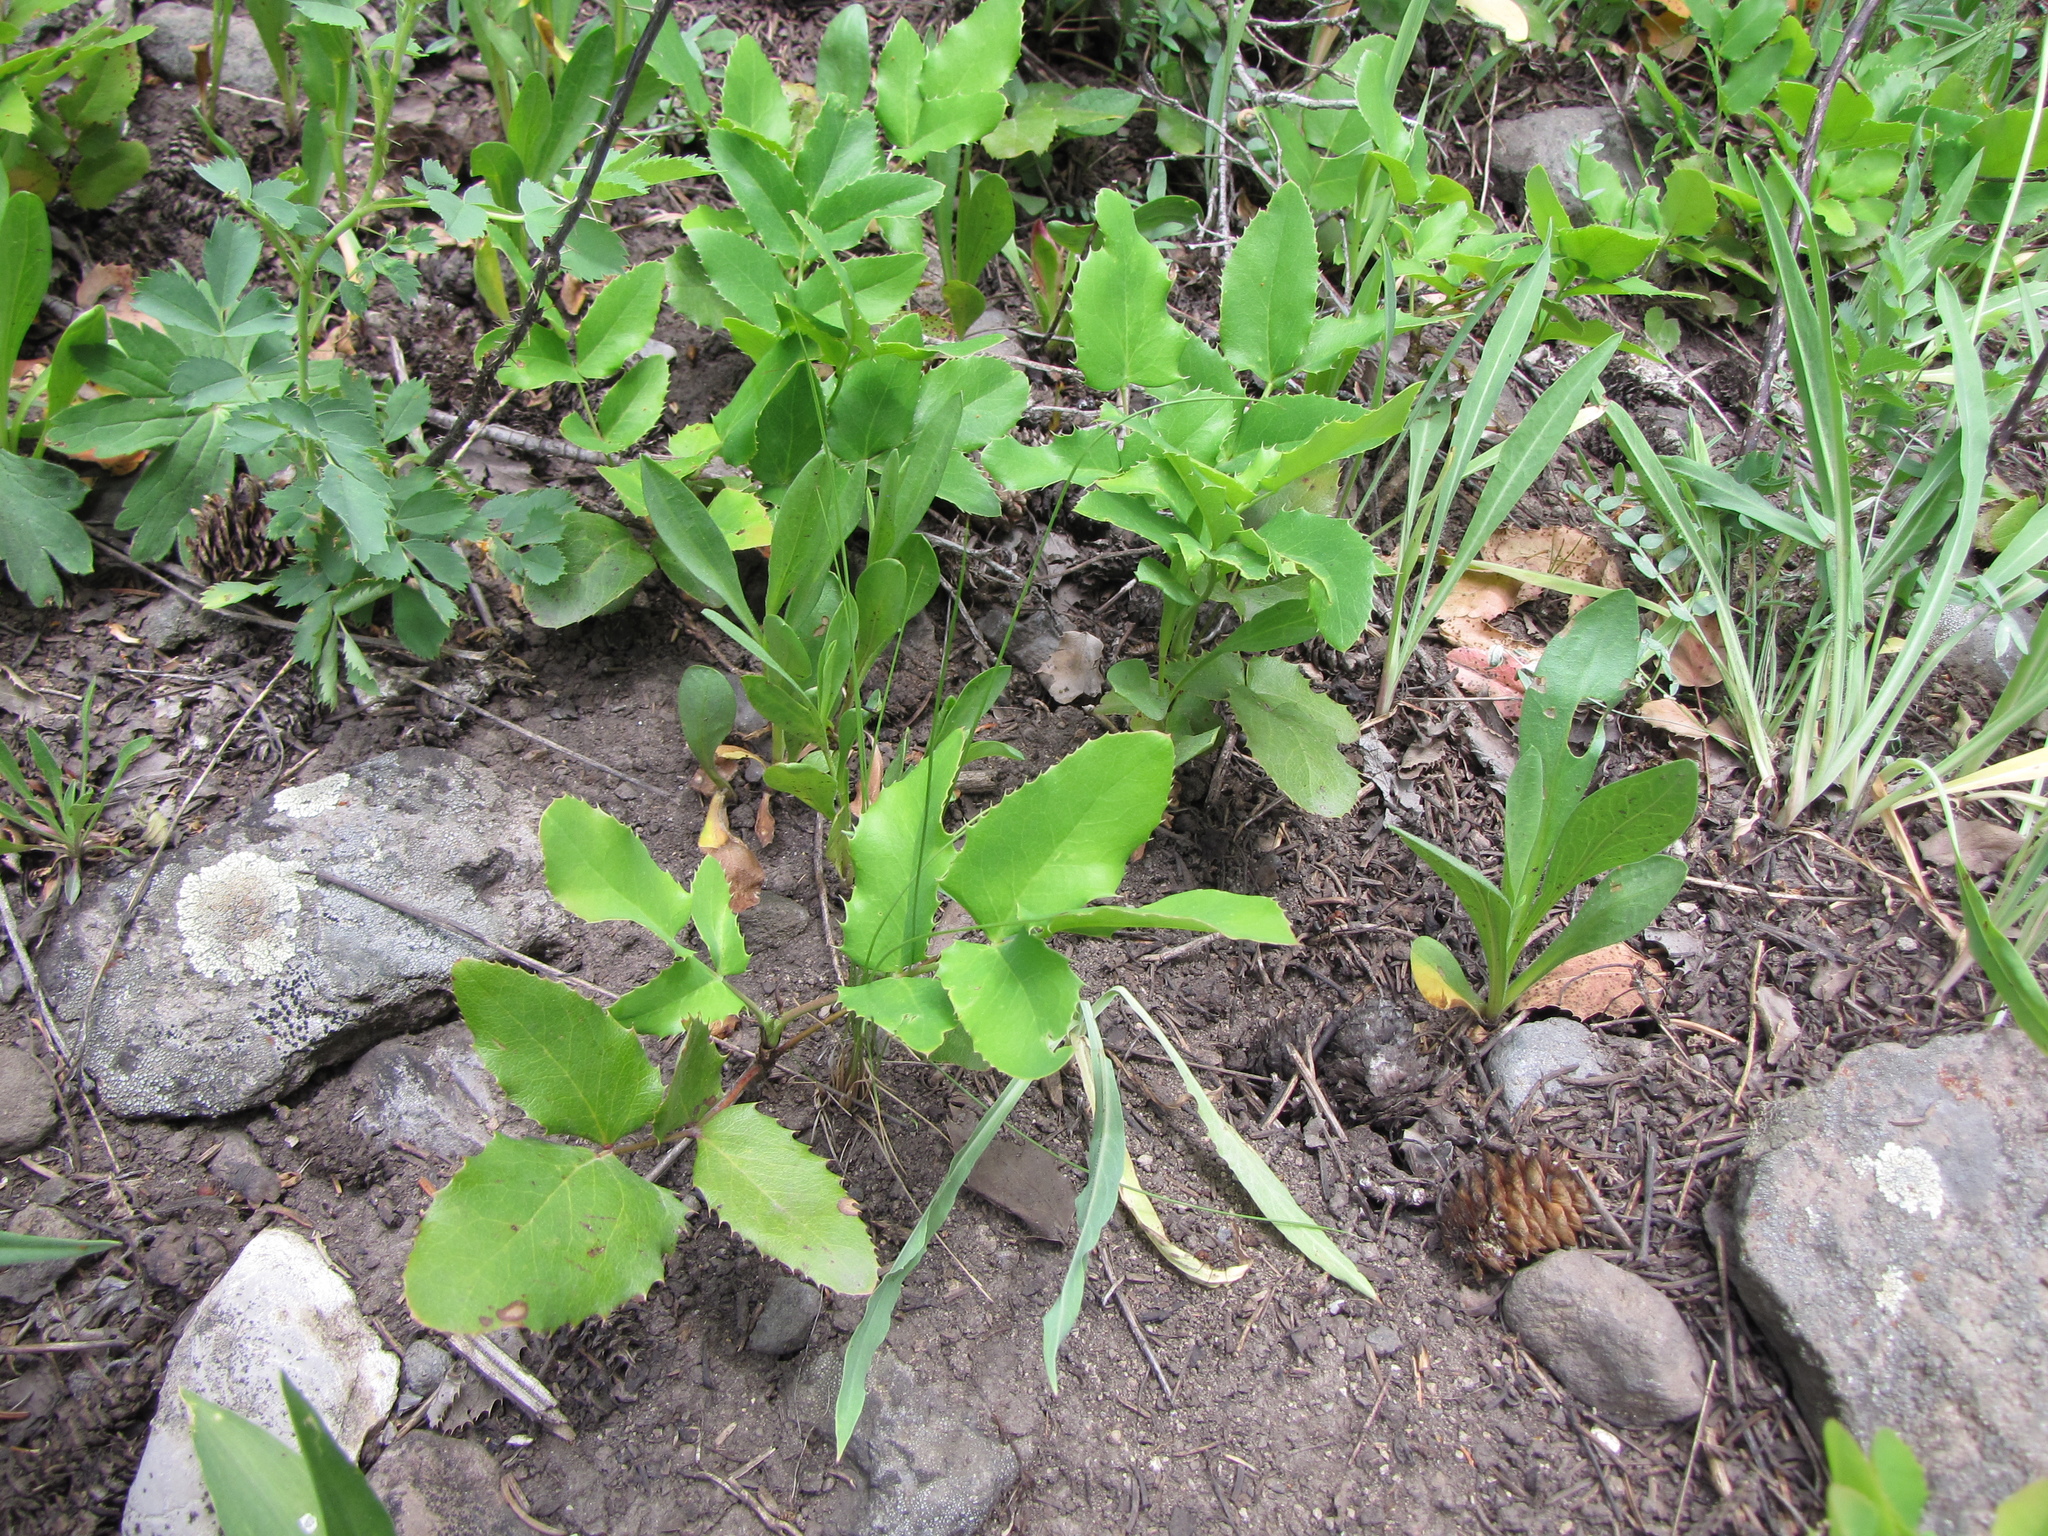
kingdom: Plantae
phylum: Tracheophyta
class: Magnoliopsida
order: Ranunculales
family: Berberidaceae
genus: Mahonia
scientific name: Mahonia repens
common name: Creeping oregon-grape
